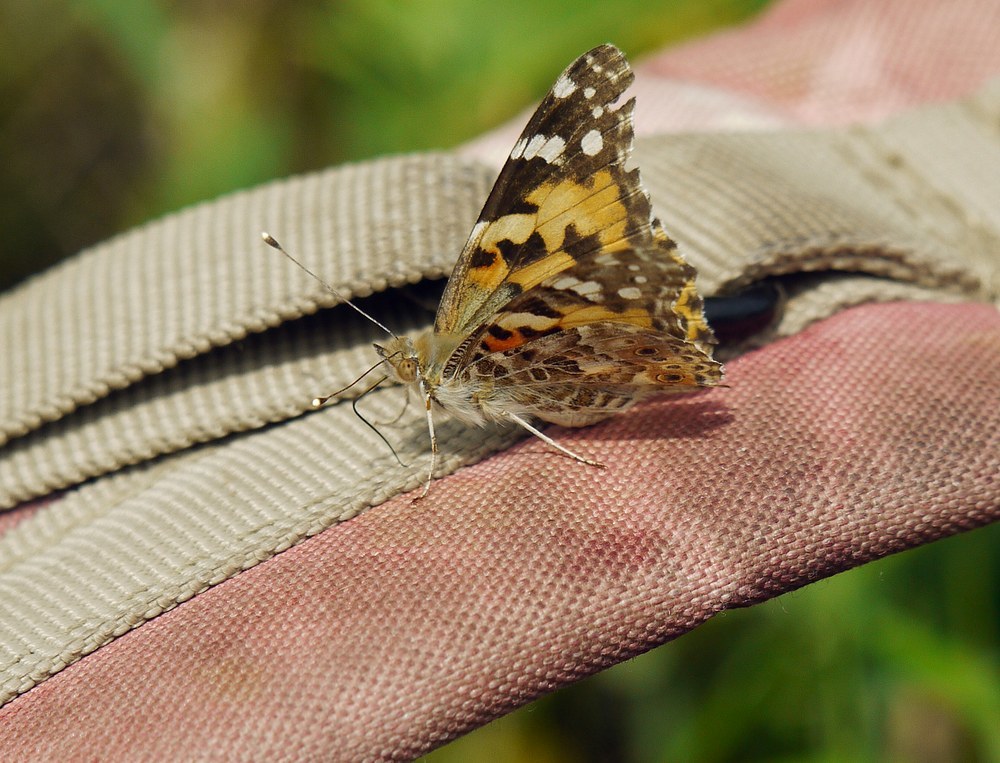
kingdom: Animalia
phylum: Arthropoda
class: Insecta
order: Lepidoptera
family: Nymphalidae
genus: Vanessa
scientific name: Vanessa cardui
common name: Painted lady
